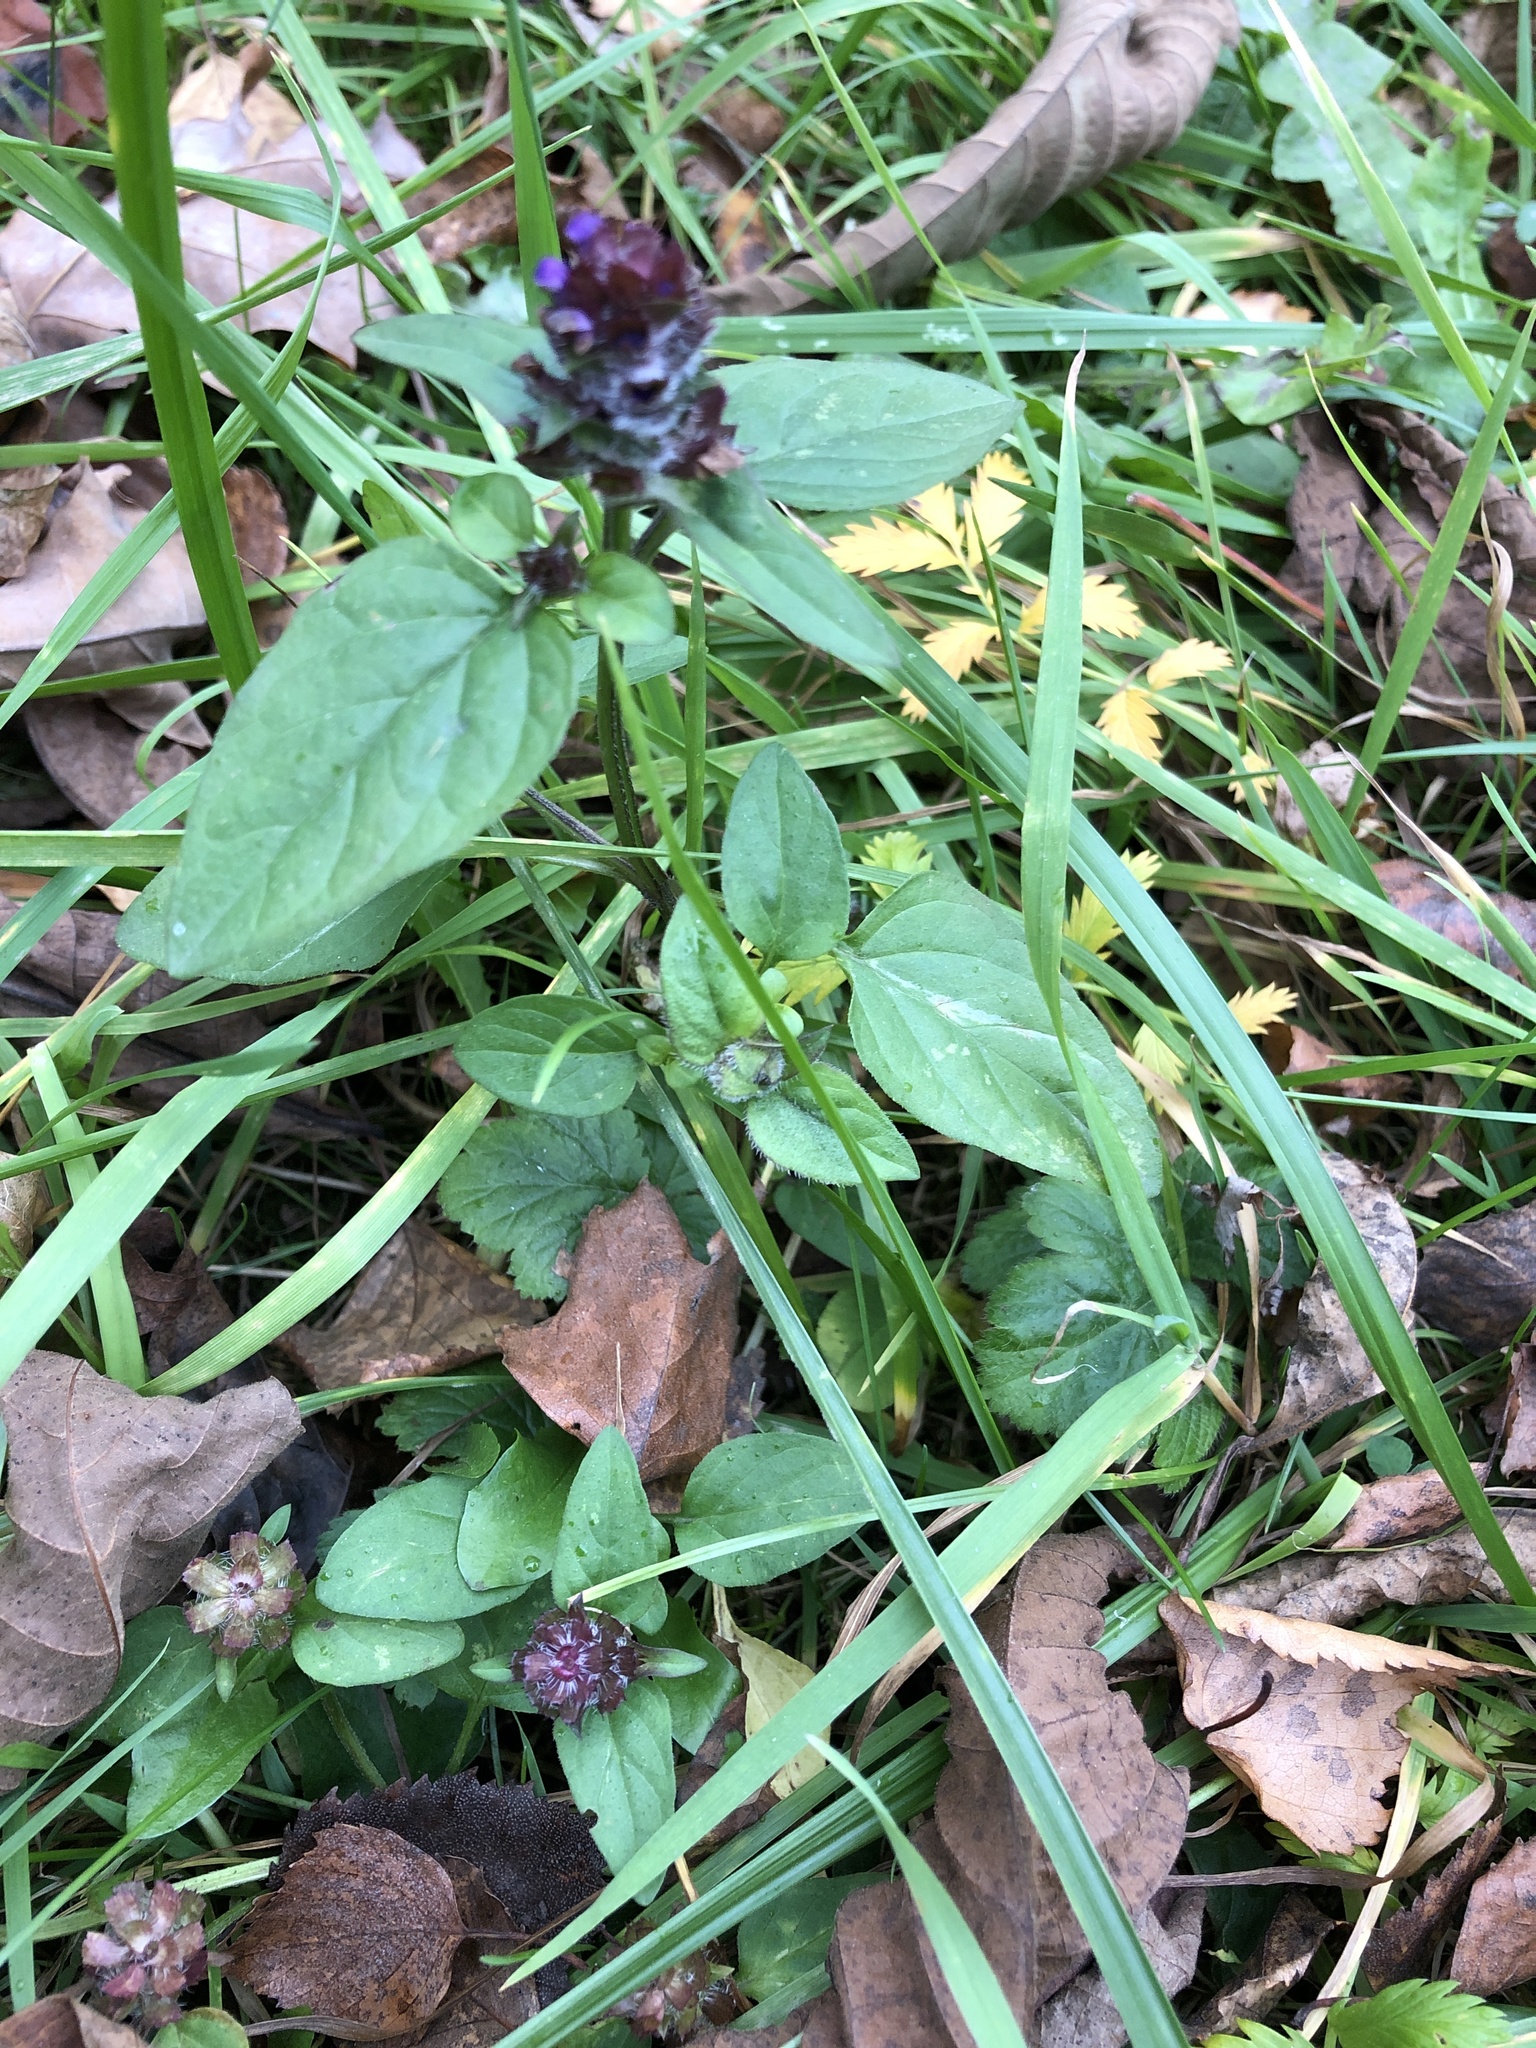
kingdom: Plantae
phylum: Tracheophyta
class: Magnoliopsida
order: Lamiales
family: Lamiaceae
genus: Prunella
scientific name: Prunella vulgaris
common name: Heal-all
